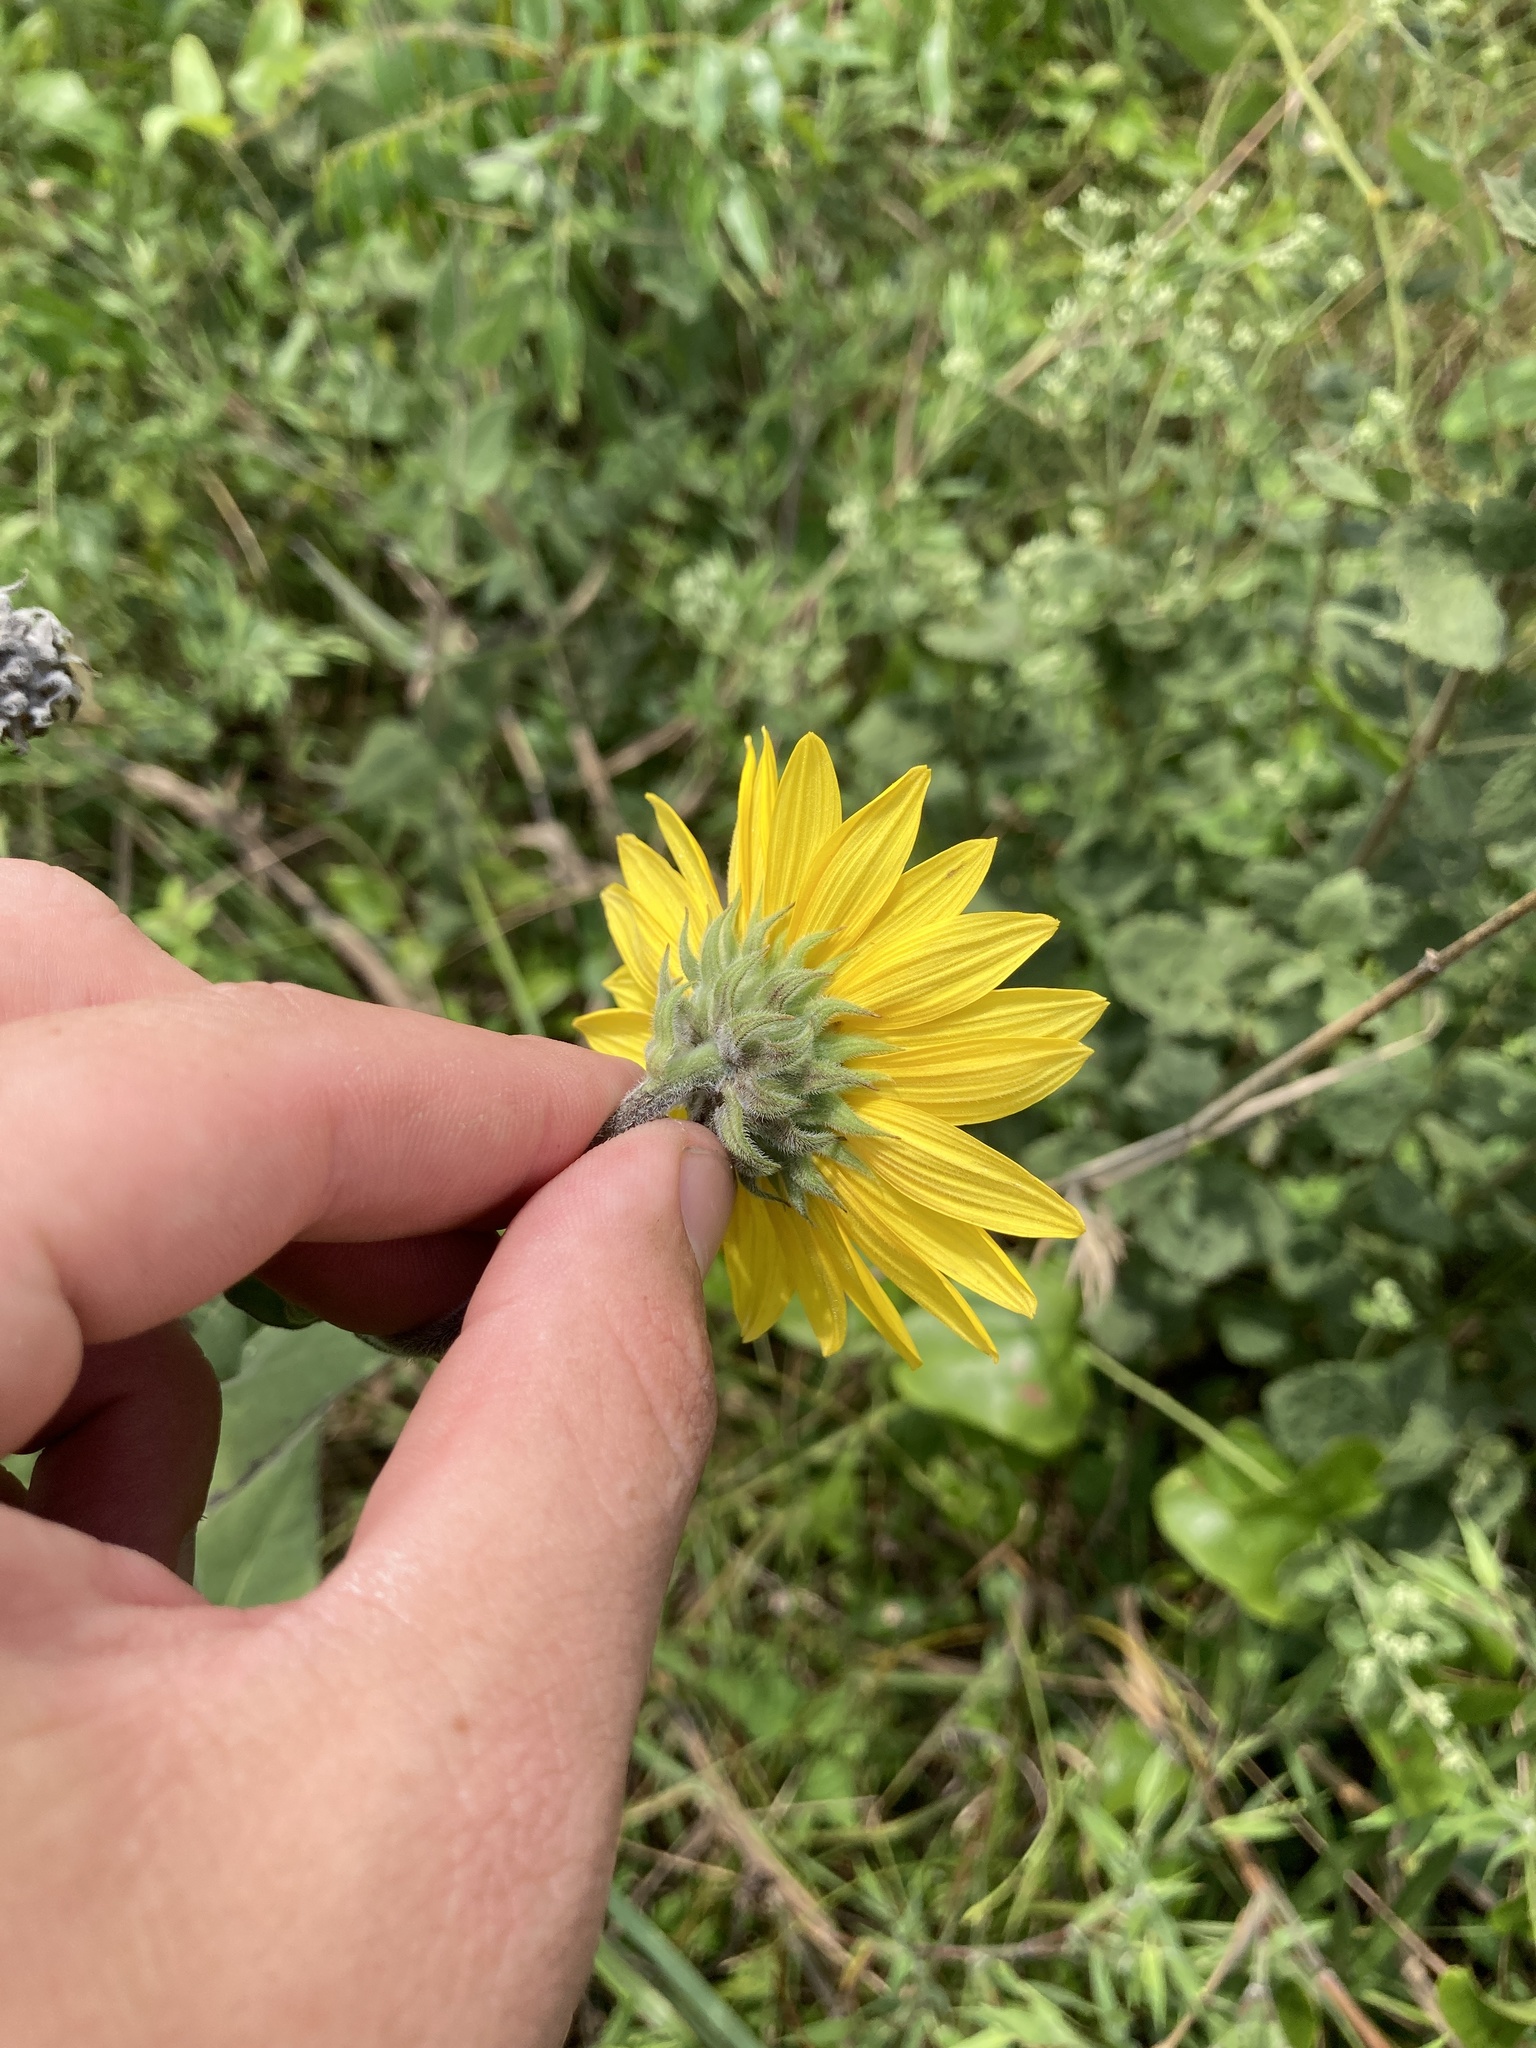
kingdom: Plantae
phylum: Tracheophyta
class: Magnoliopsida
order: Asterales
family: Asteraceae
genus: Helianthus
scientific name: Helianthus mollis
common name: Ashy sunflower
